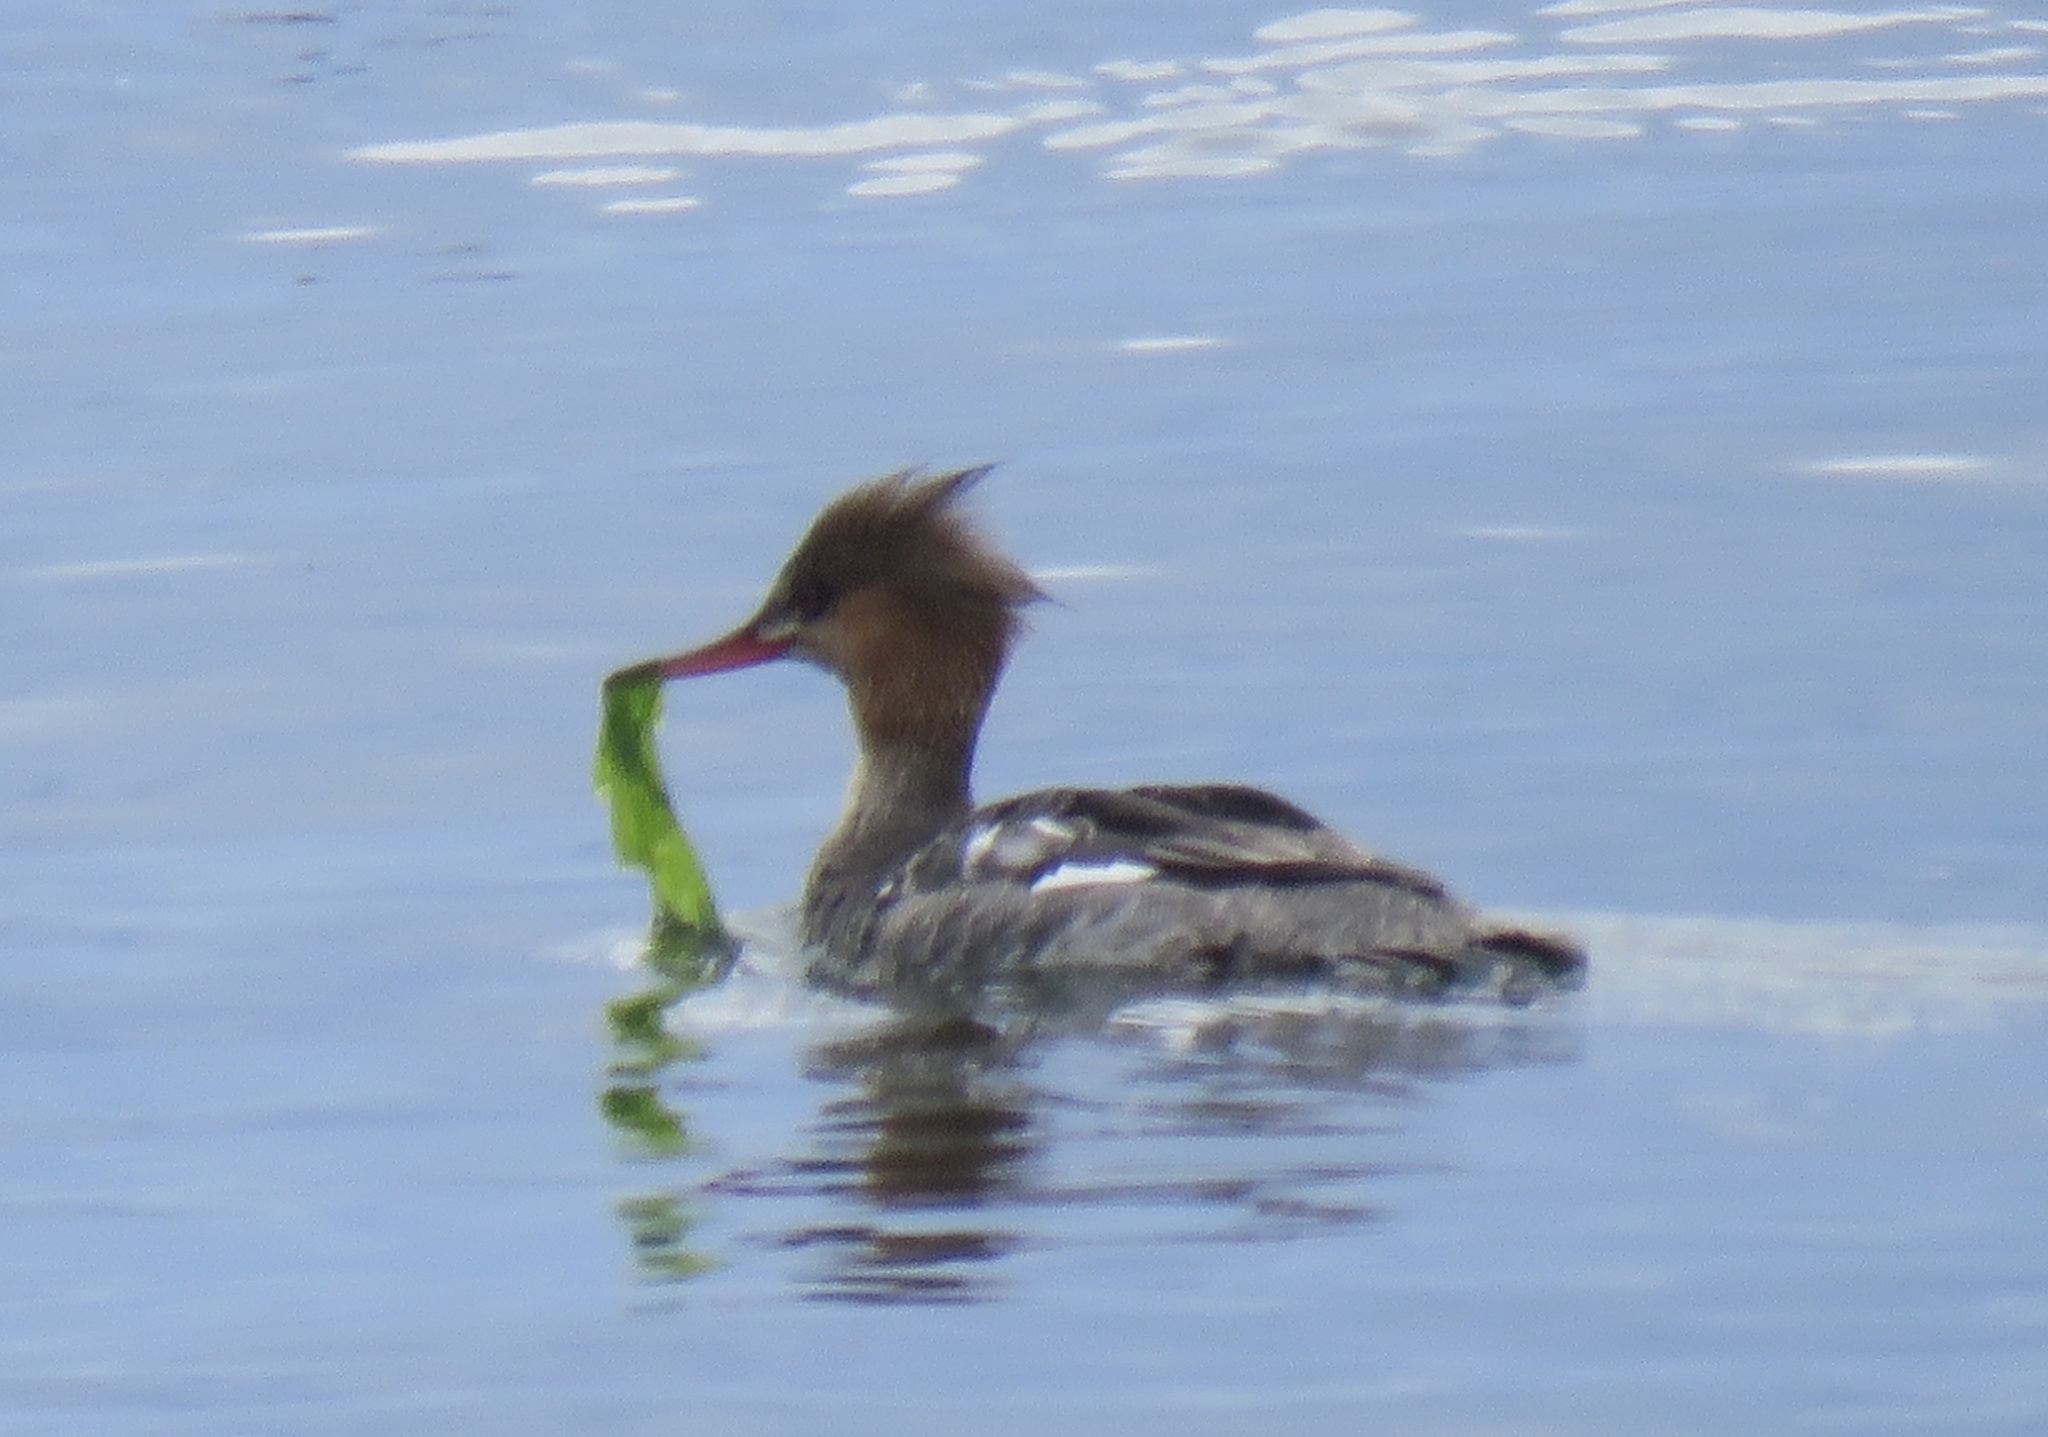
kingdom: Animalia
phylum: Chordata
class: Aves
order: Anseriformes
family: Anatidae
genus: Mergus
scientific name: Mergus serrator
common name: Red-breasted merganser
